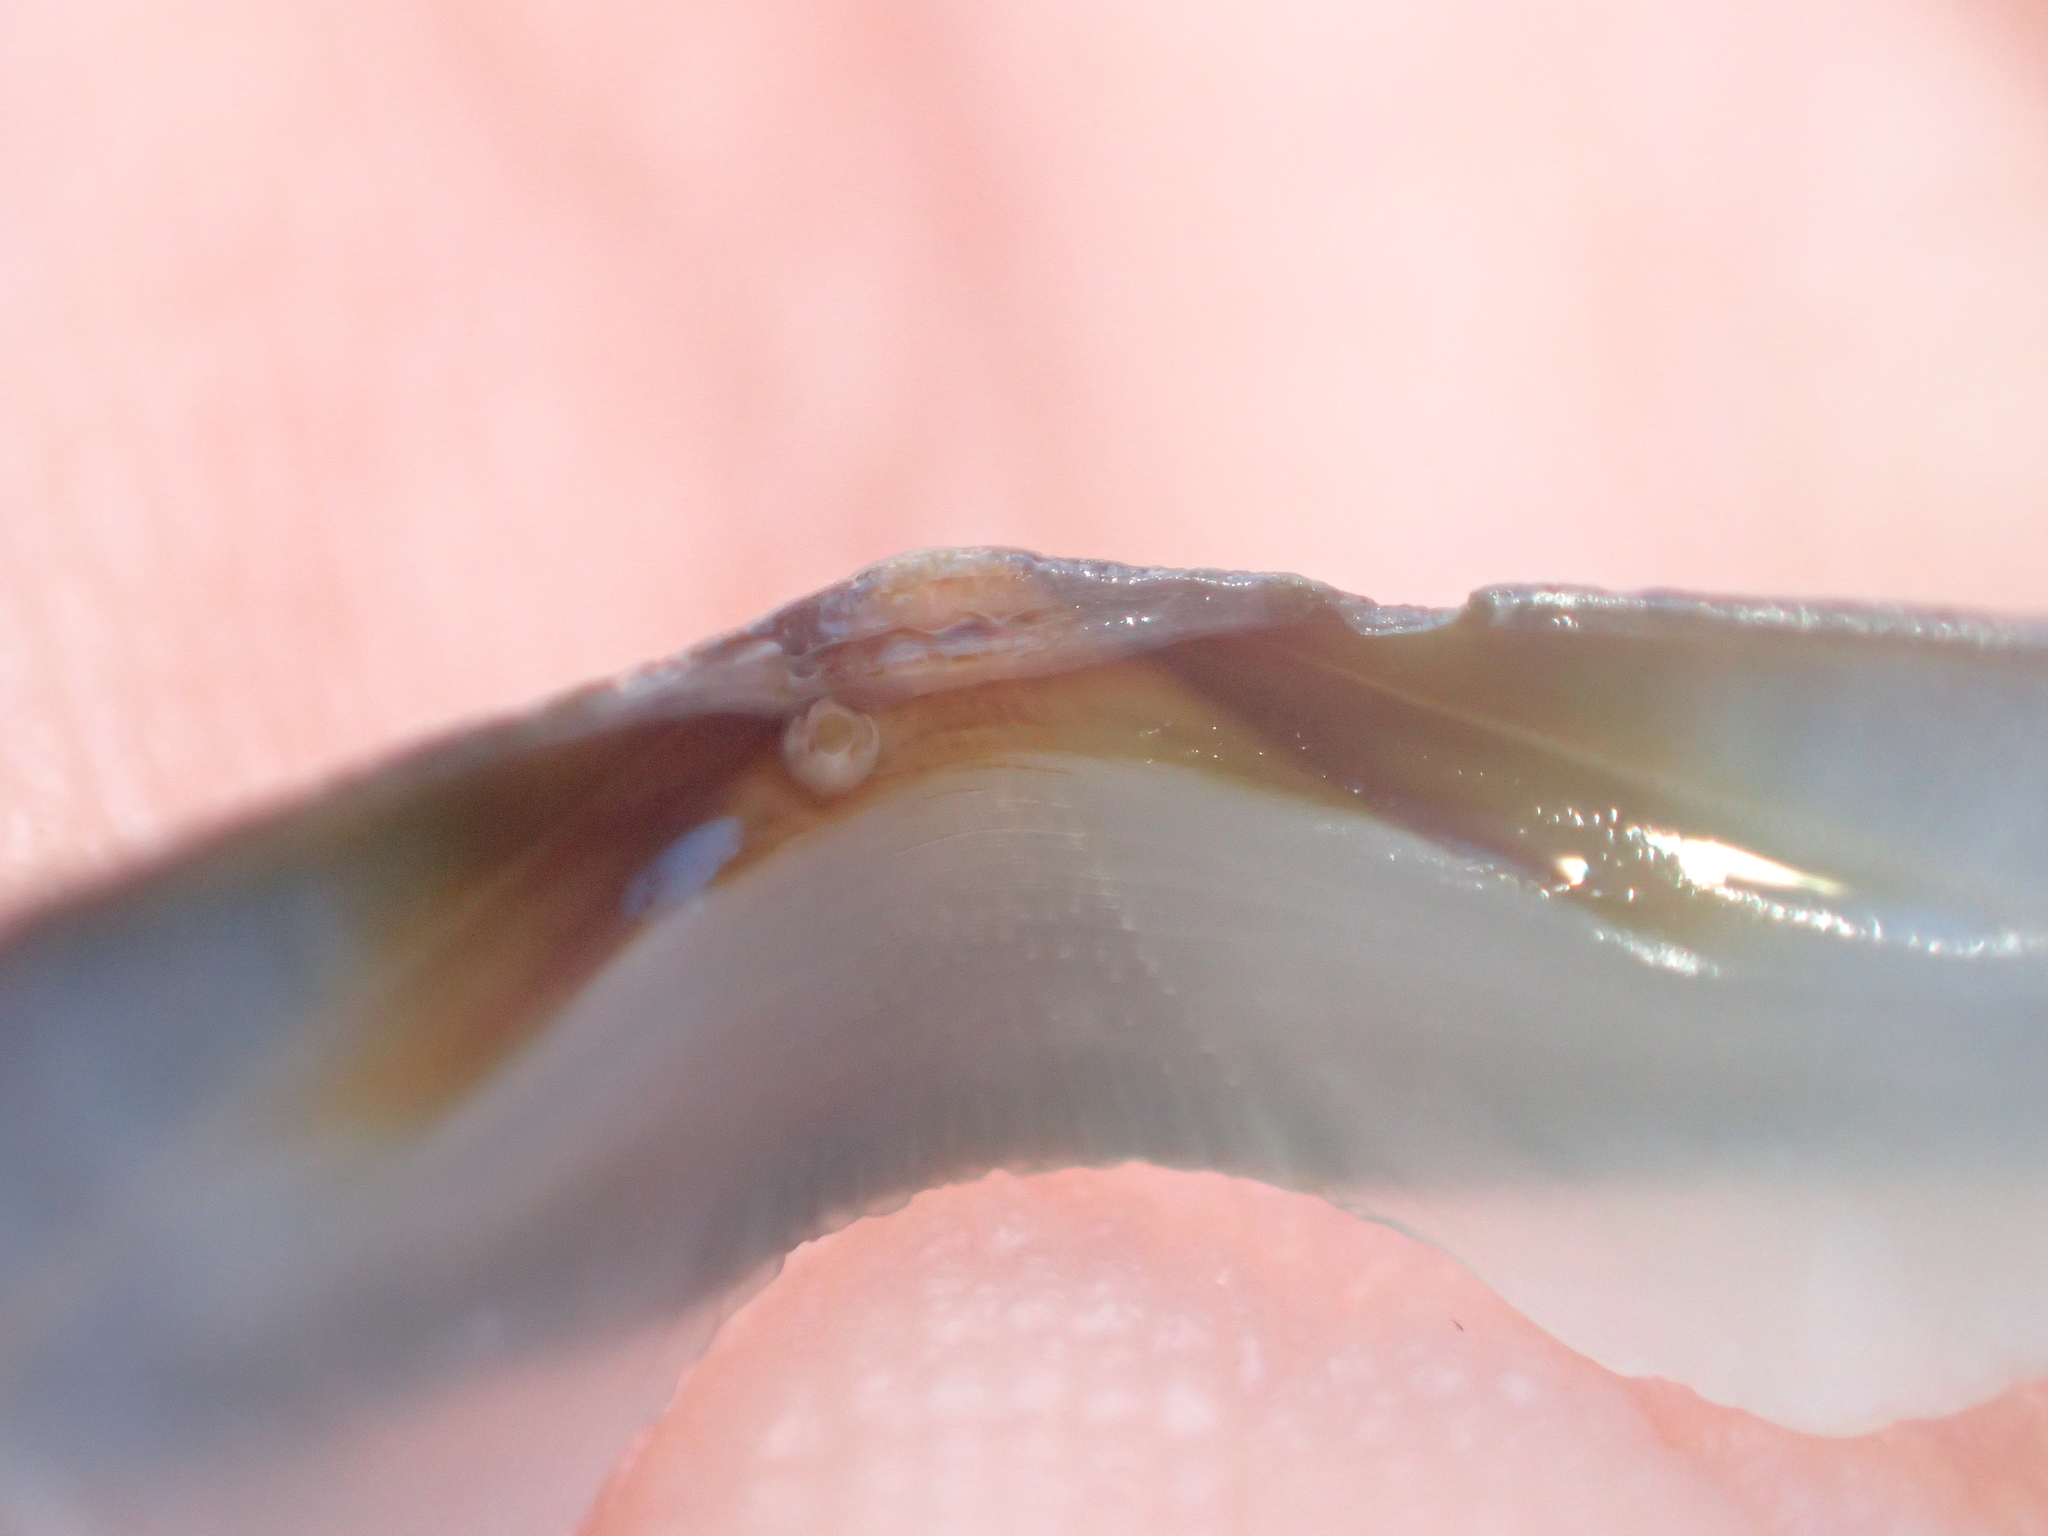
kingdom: Animalia
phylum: Mollusca
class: Polyplacophora
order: Chitonida
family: Chitonidae
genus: Chiton
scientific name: Chiton glaucus
